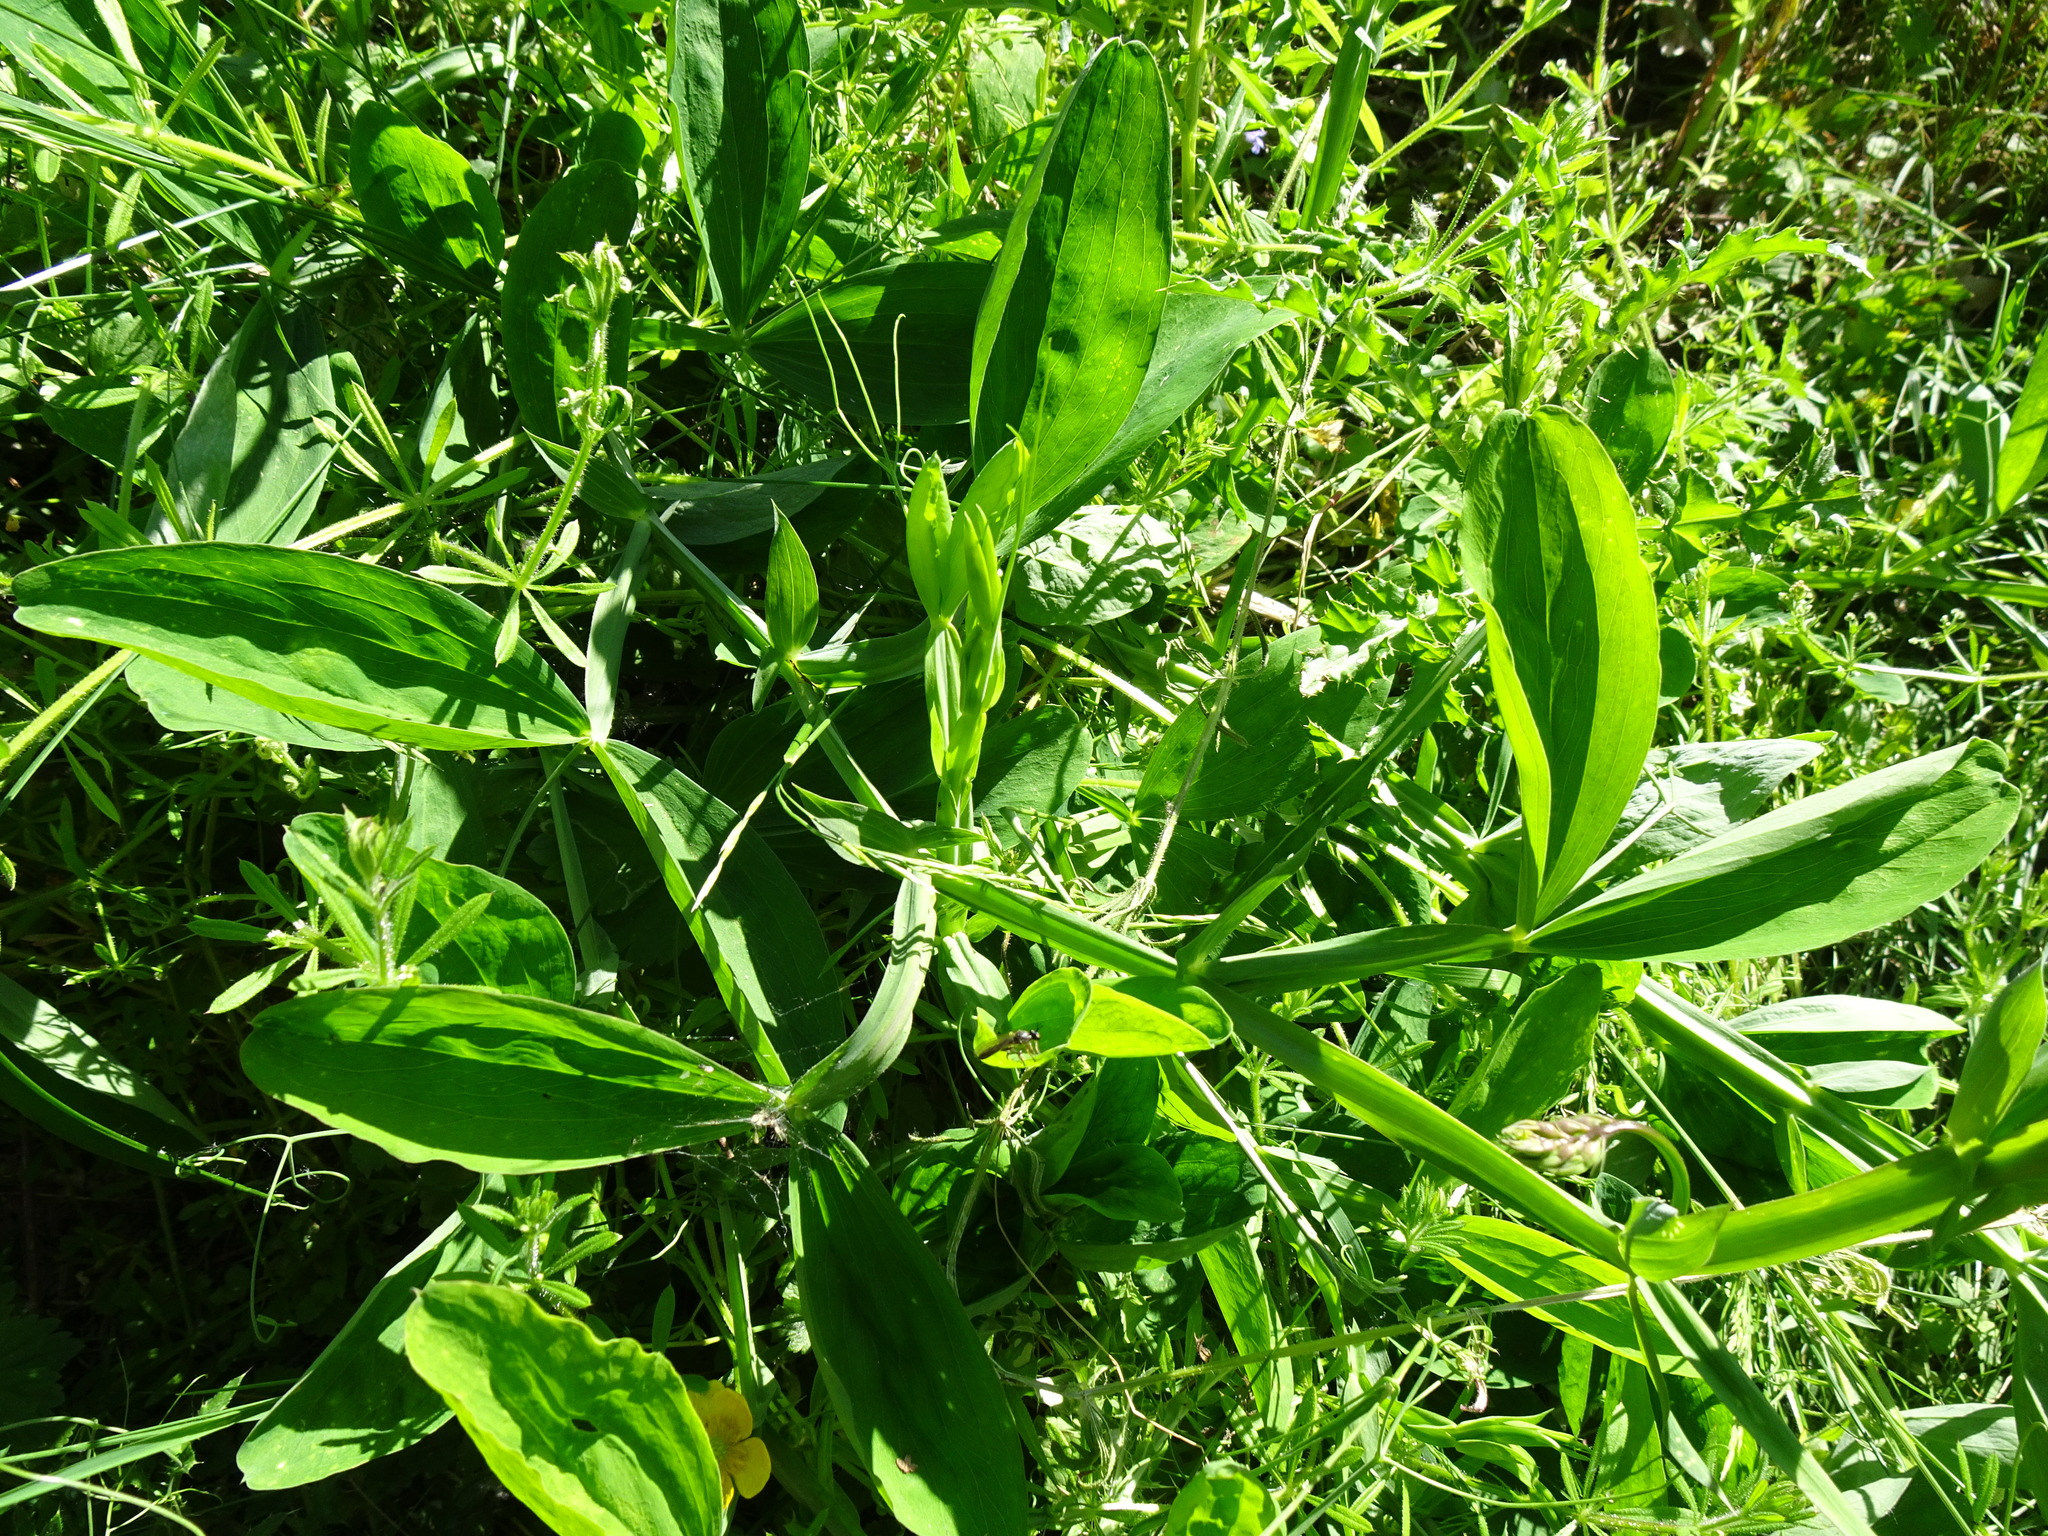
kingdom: Plantae
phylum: Tracheophyta
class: Magnoliopsida
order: Fabales
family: Fabaceae
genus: Lathyrus
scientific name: Lathyrus latifolius
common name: Perennial pea
